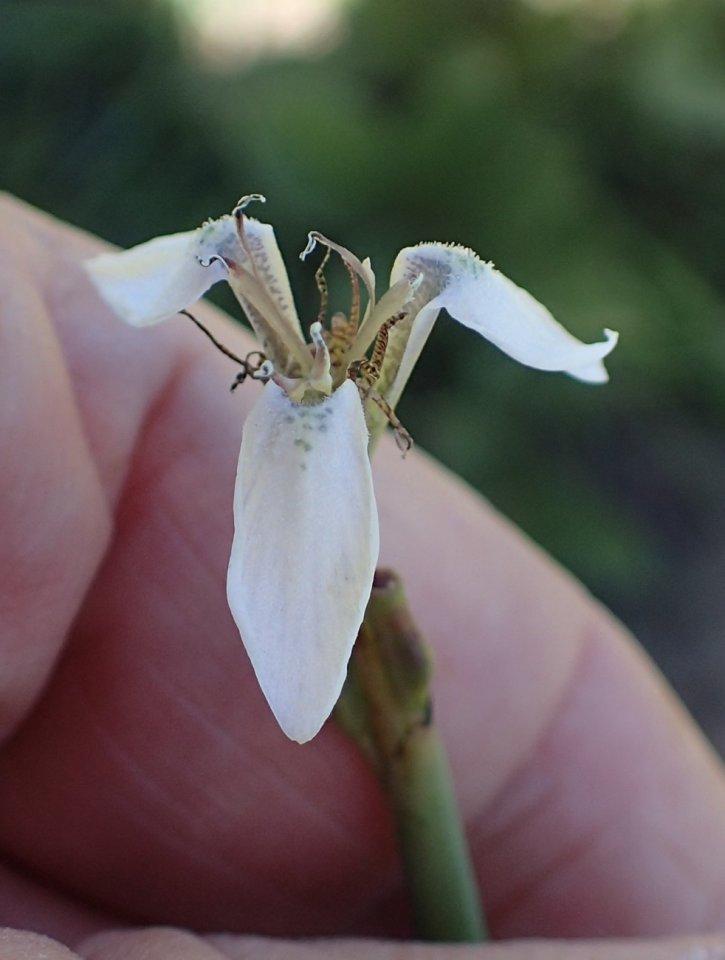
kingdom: Plantae
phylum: Tracheophyta
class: Liliopsida
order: Asparagales
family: Iridaceae
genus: Moraea
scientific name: Moraea brevistyla
